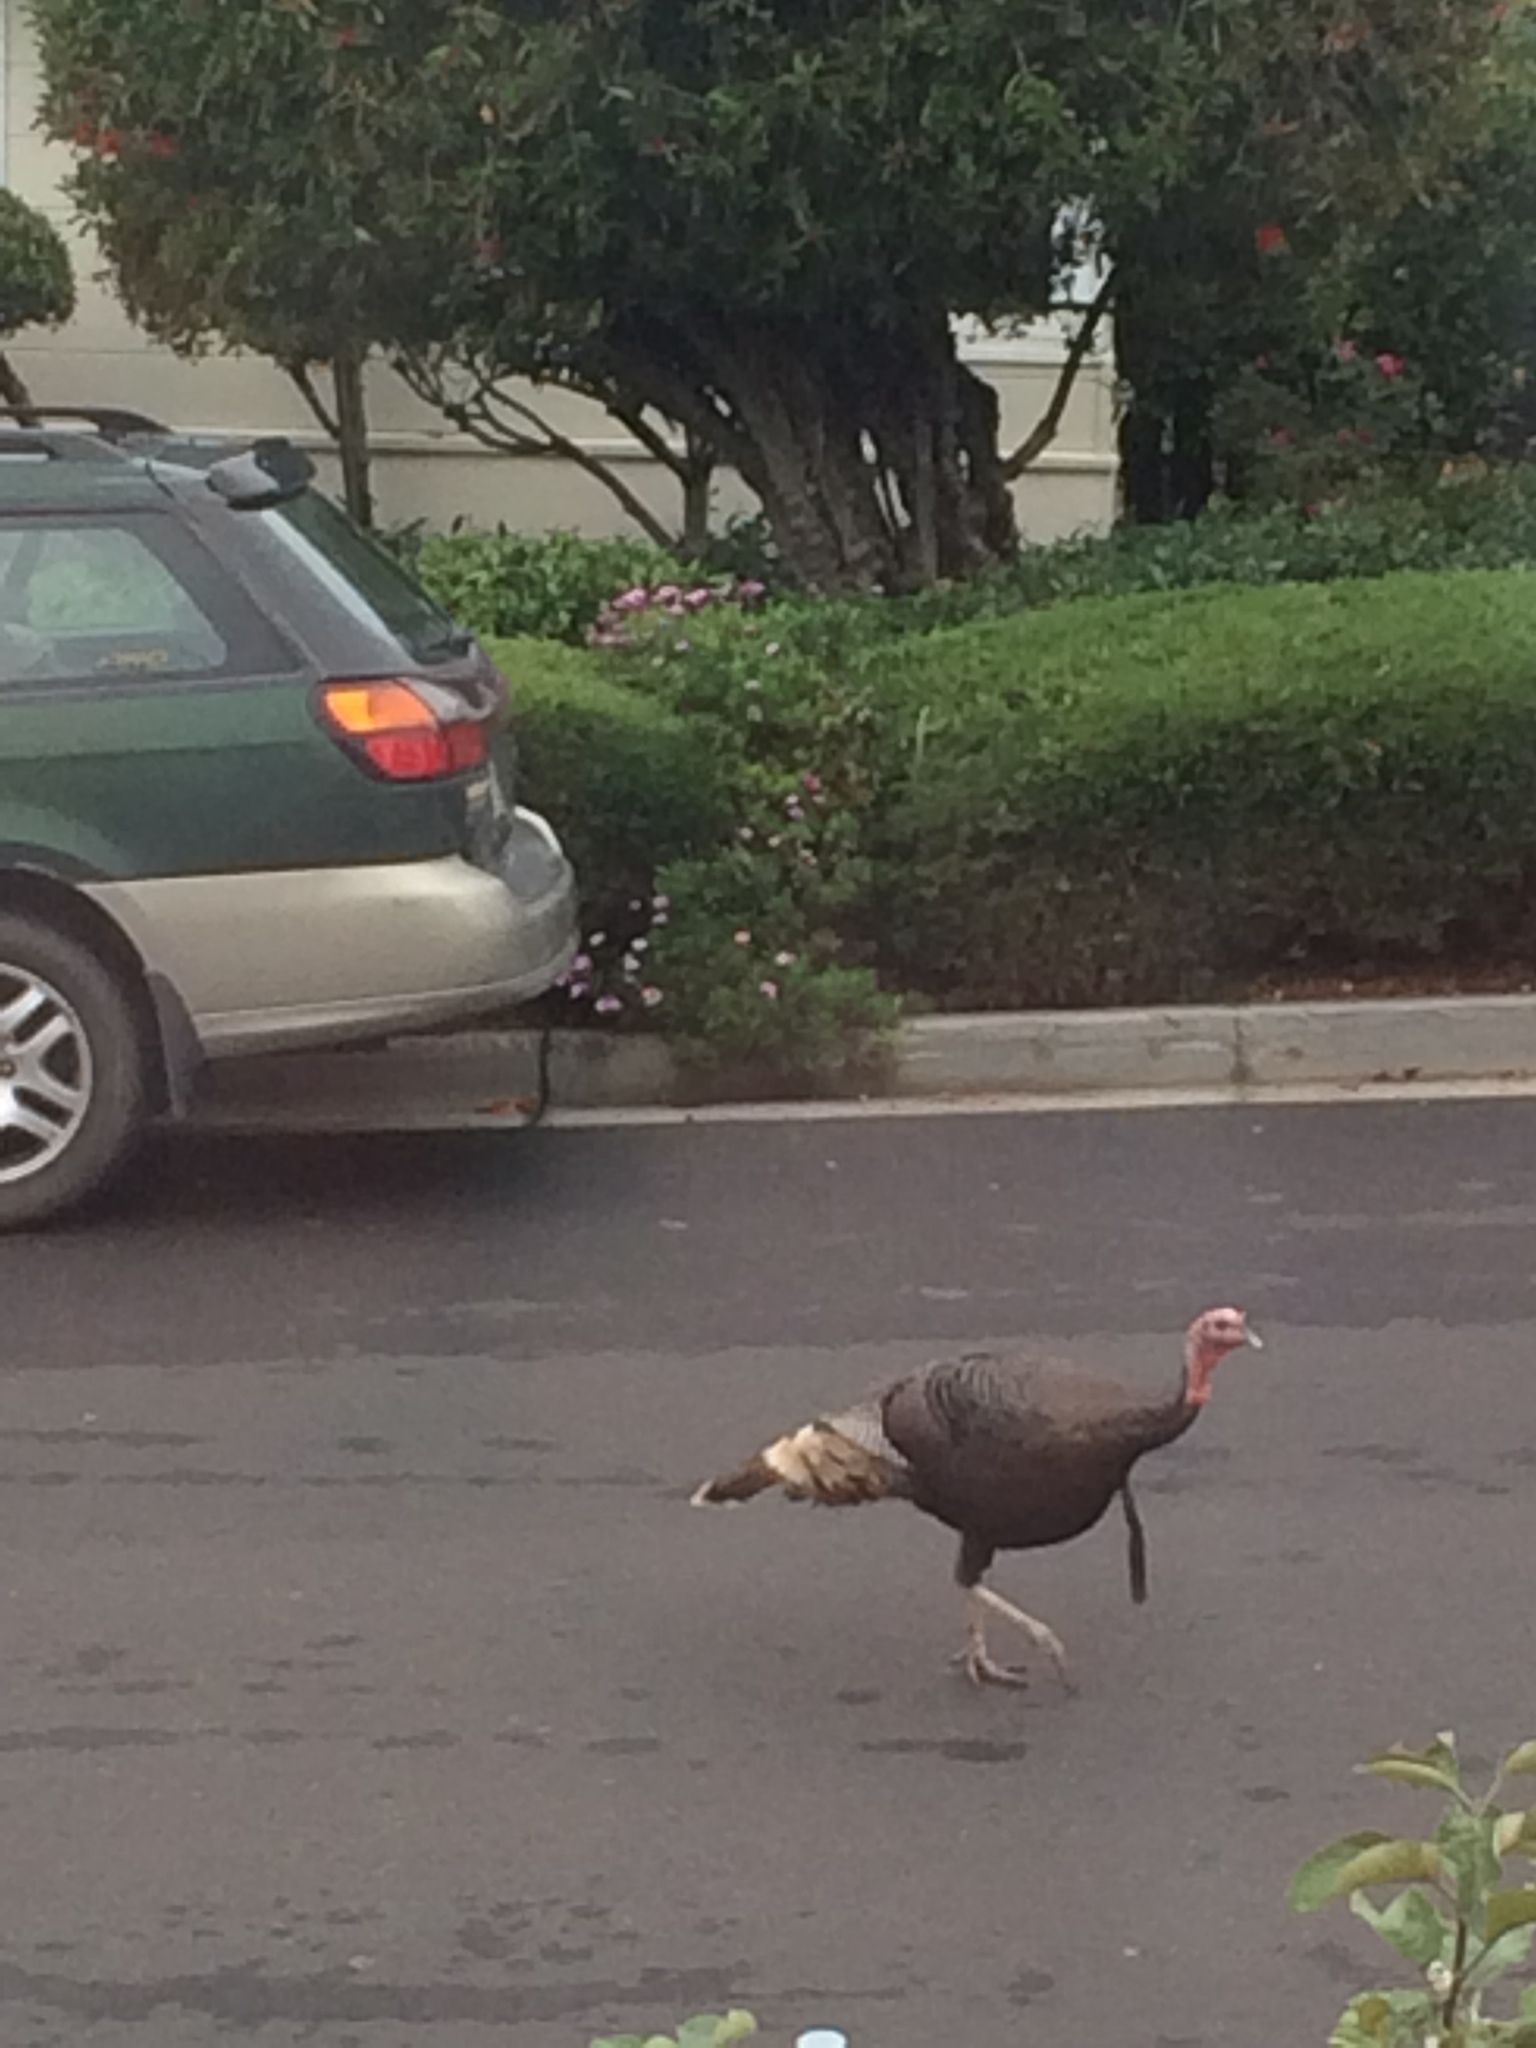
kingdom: Animalia
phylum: Chordata
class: Aves
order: Galliformes
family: Phasianidae
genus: Meleagris
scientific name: Meleagris gallopavo
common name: Wild turkey
